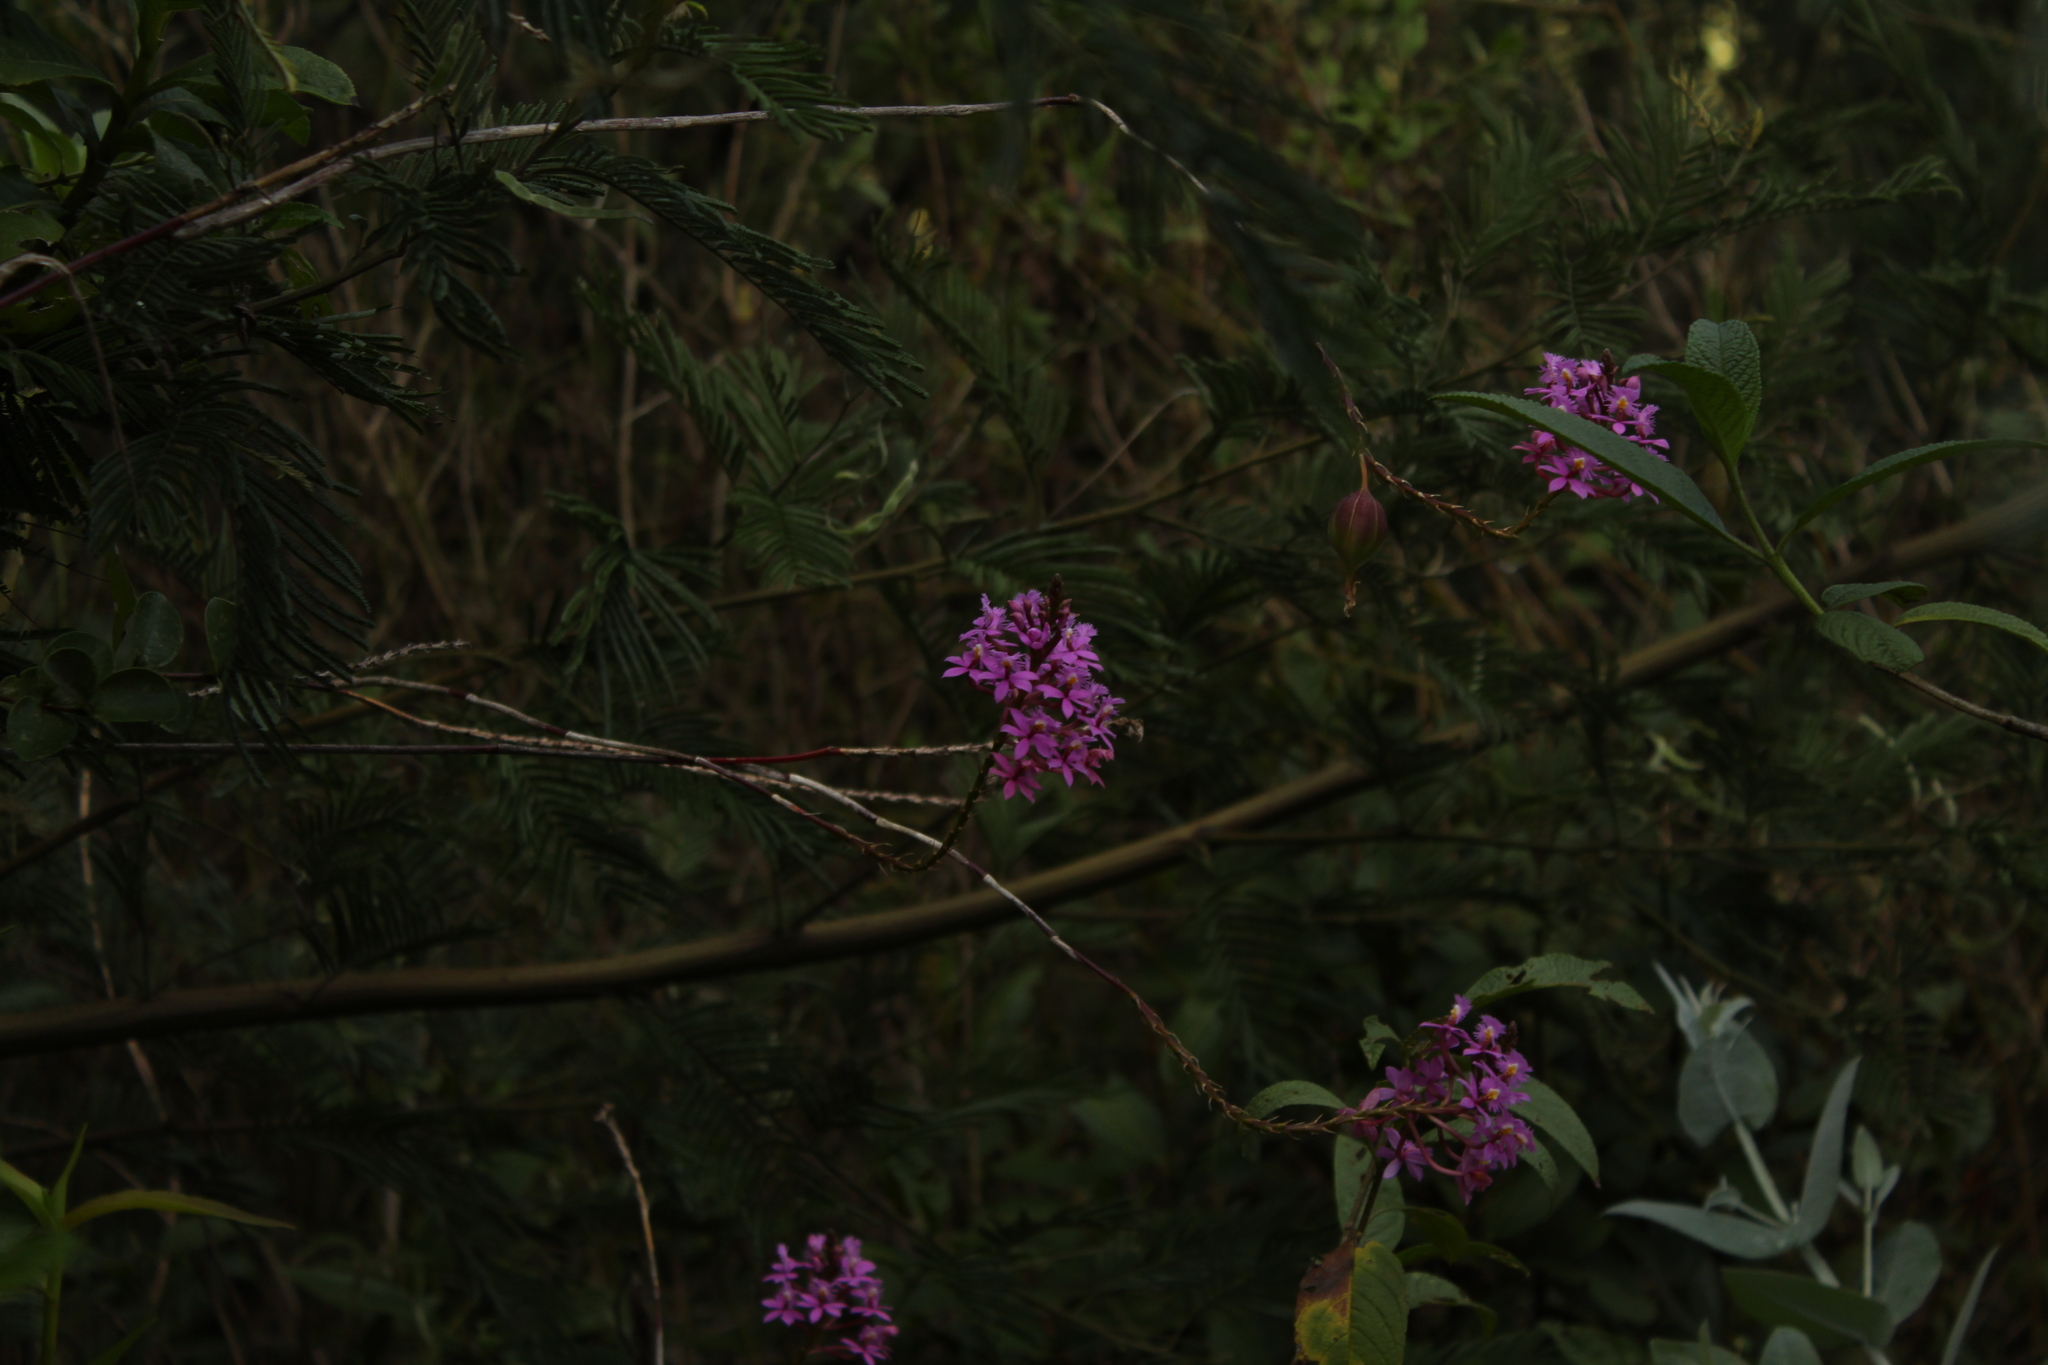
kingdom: Plantae
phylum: Tracheophyta
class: Liliopsida
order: Asparagales
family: Orchidaceae
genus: Epidendrum
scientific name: Epidendrum arachnoglossum
